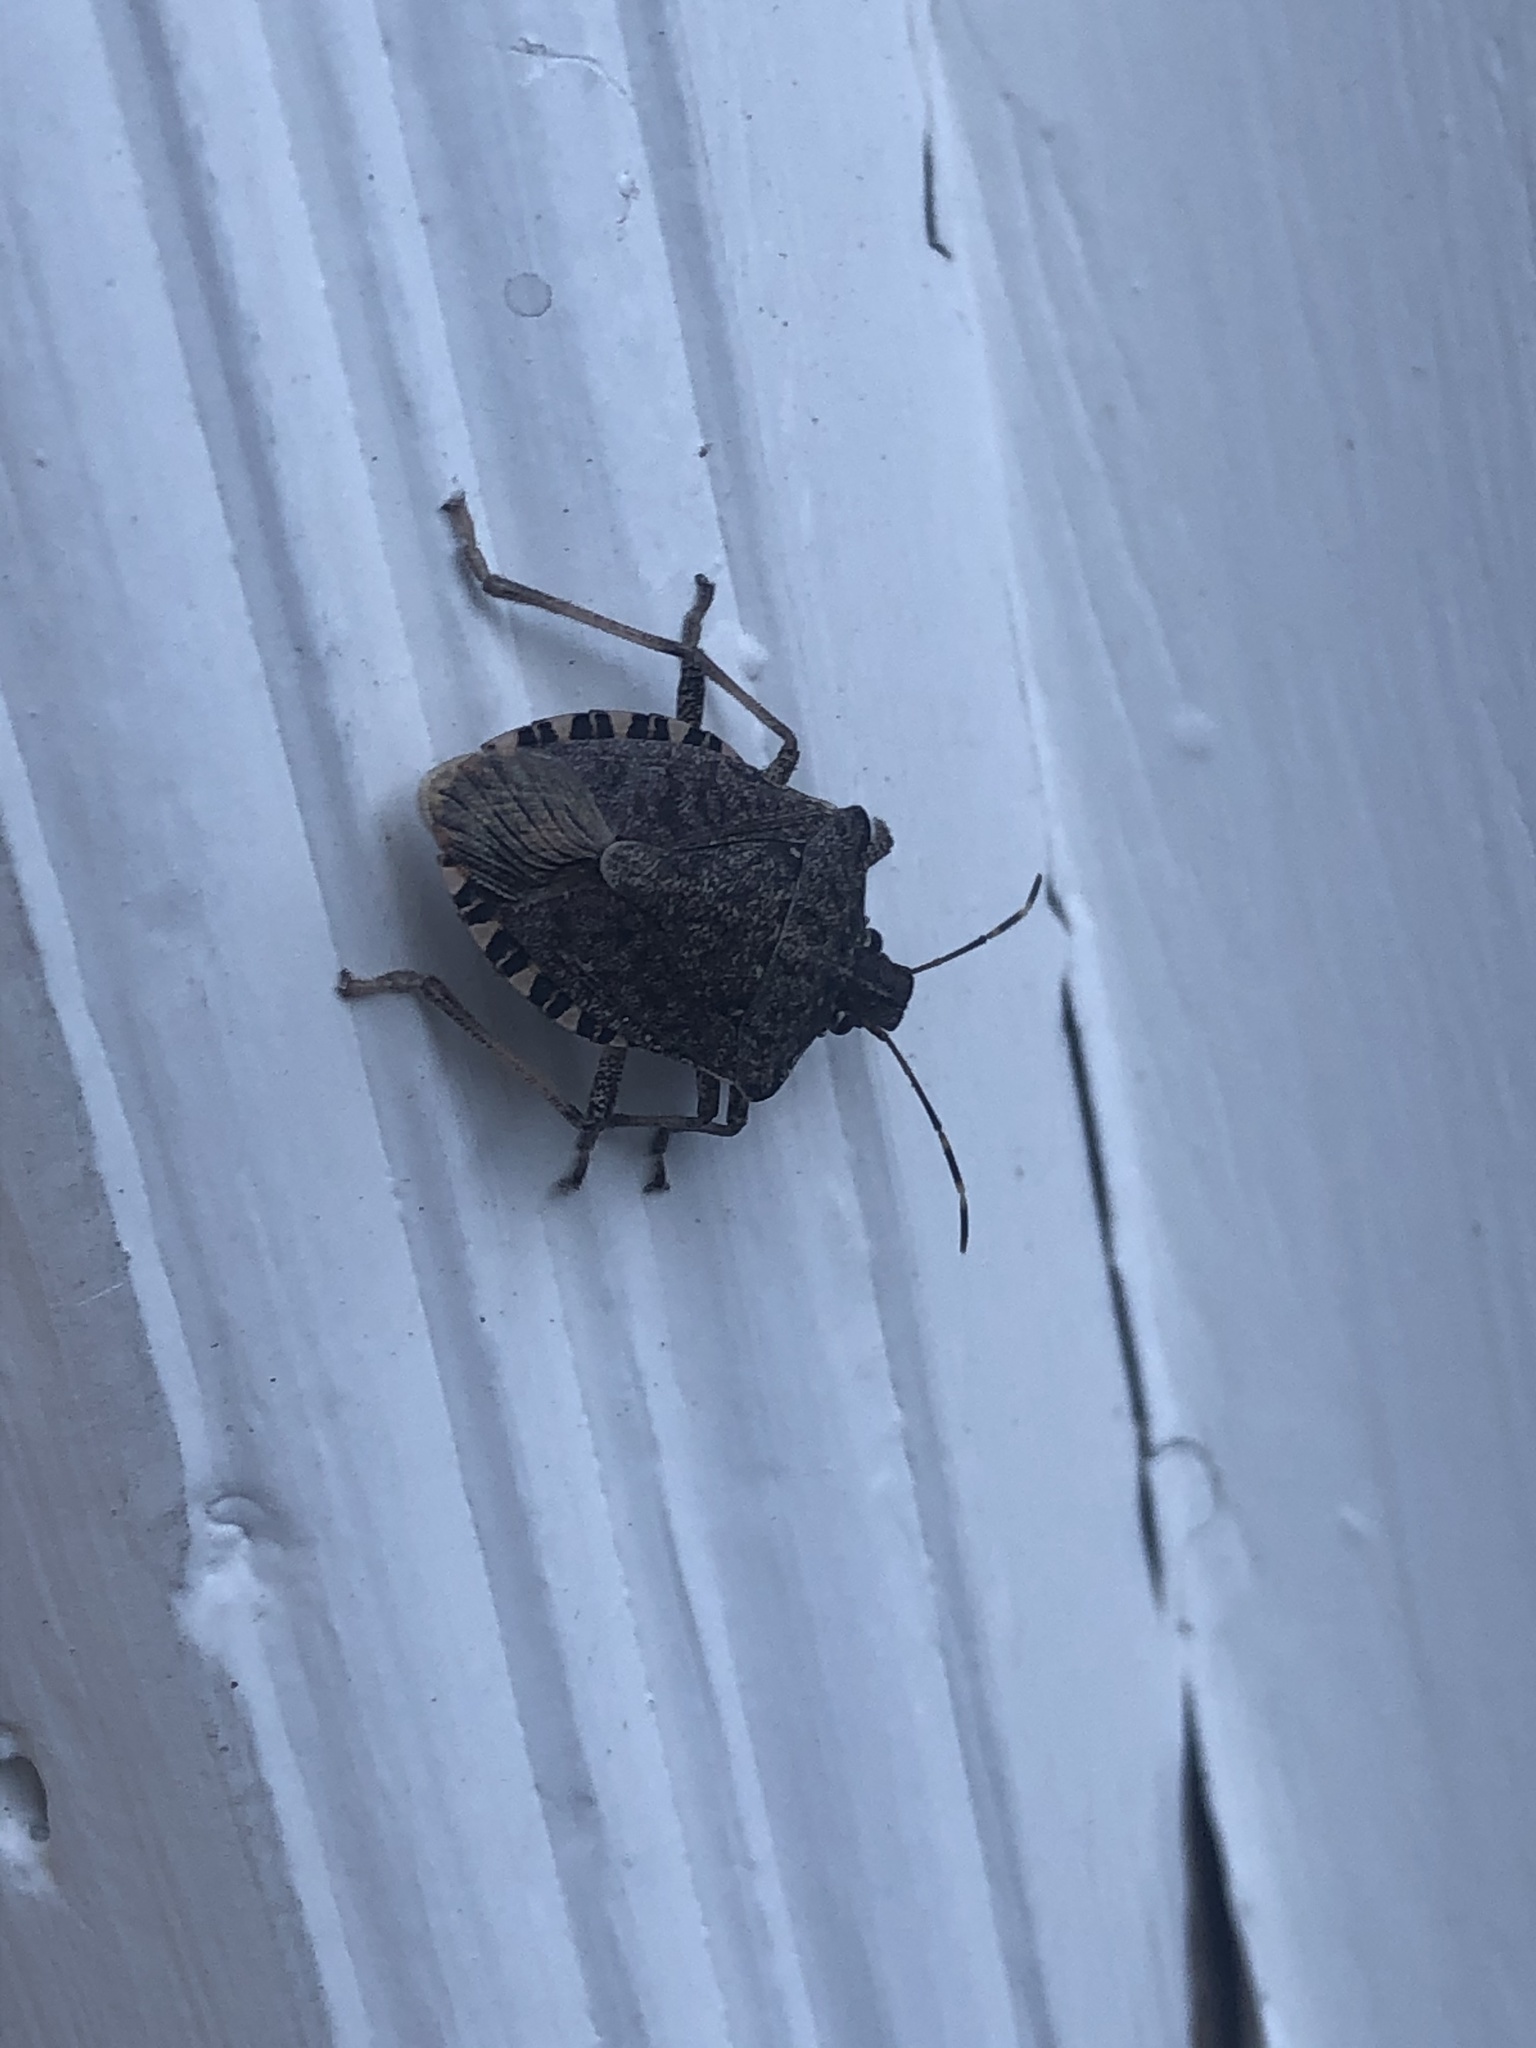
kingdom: Animalia
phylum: Arthropoda
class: Insecta
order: Hemiptera
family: Pentatomidae
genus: Halyomorpha
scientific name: Halyomorpha halys
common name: Brown marmorated stink bug
